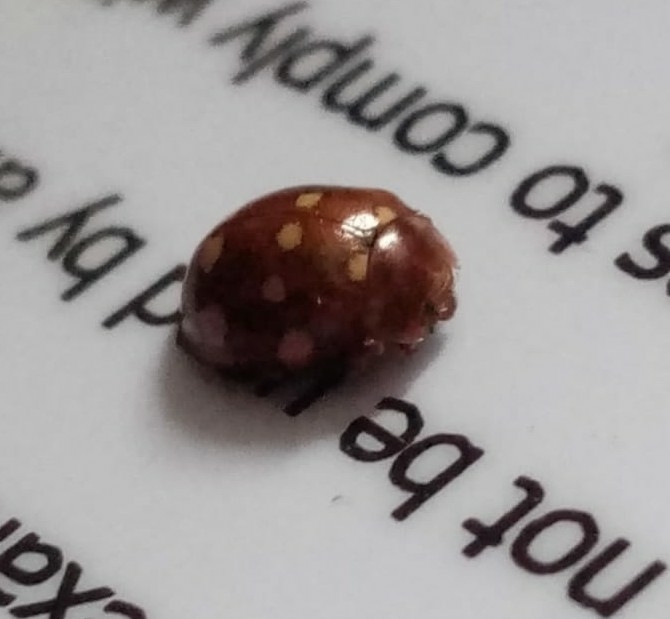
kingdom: Animalia
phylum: Arthropoda
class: Insecta
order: Coleoptera
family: Coccinellidae
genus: Calvia
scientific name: Calvia quatuordecimguttata
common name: Cream-spot ladybird
